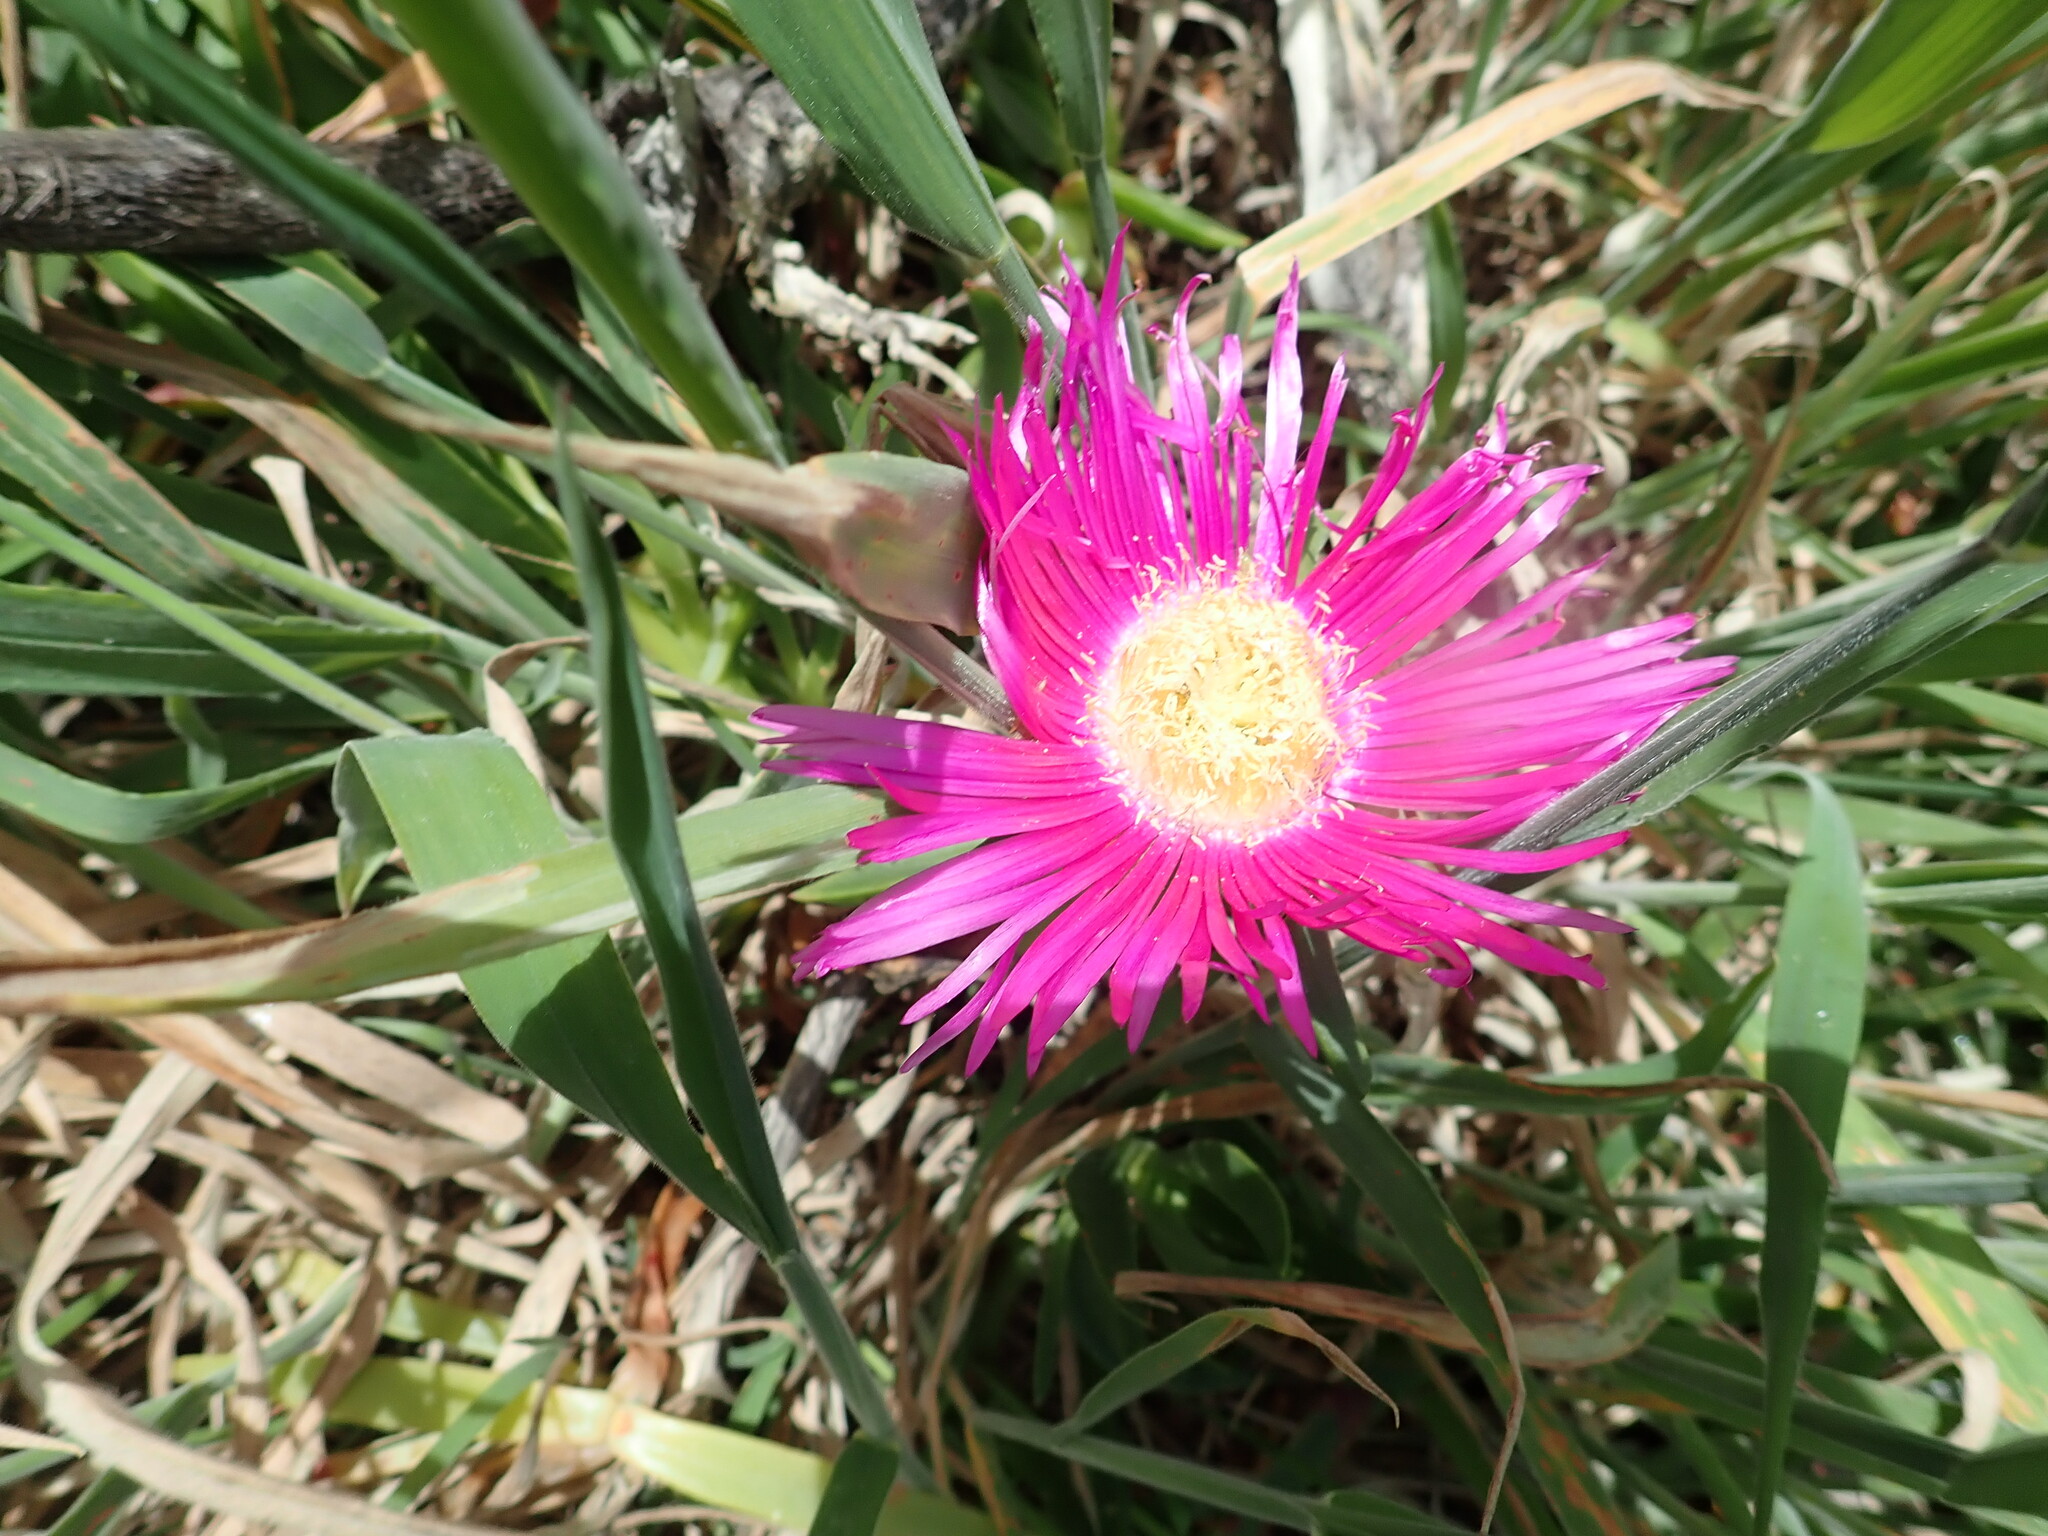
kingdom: Plantae
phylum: Tracheophyta
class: Magnoliopsida
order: Caryophyllales
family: Aizoaceae
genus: Carpobrotus
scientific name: Carpobrotus chilensis
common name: Sea fig
